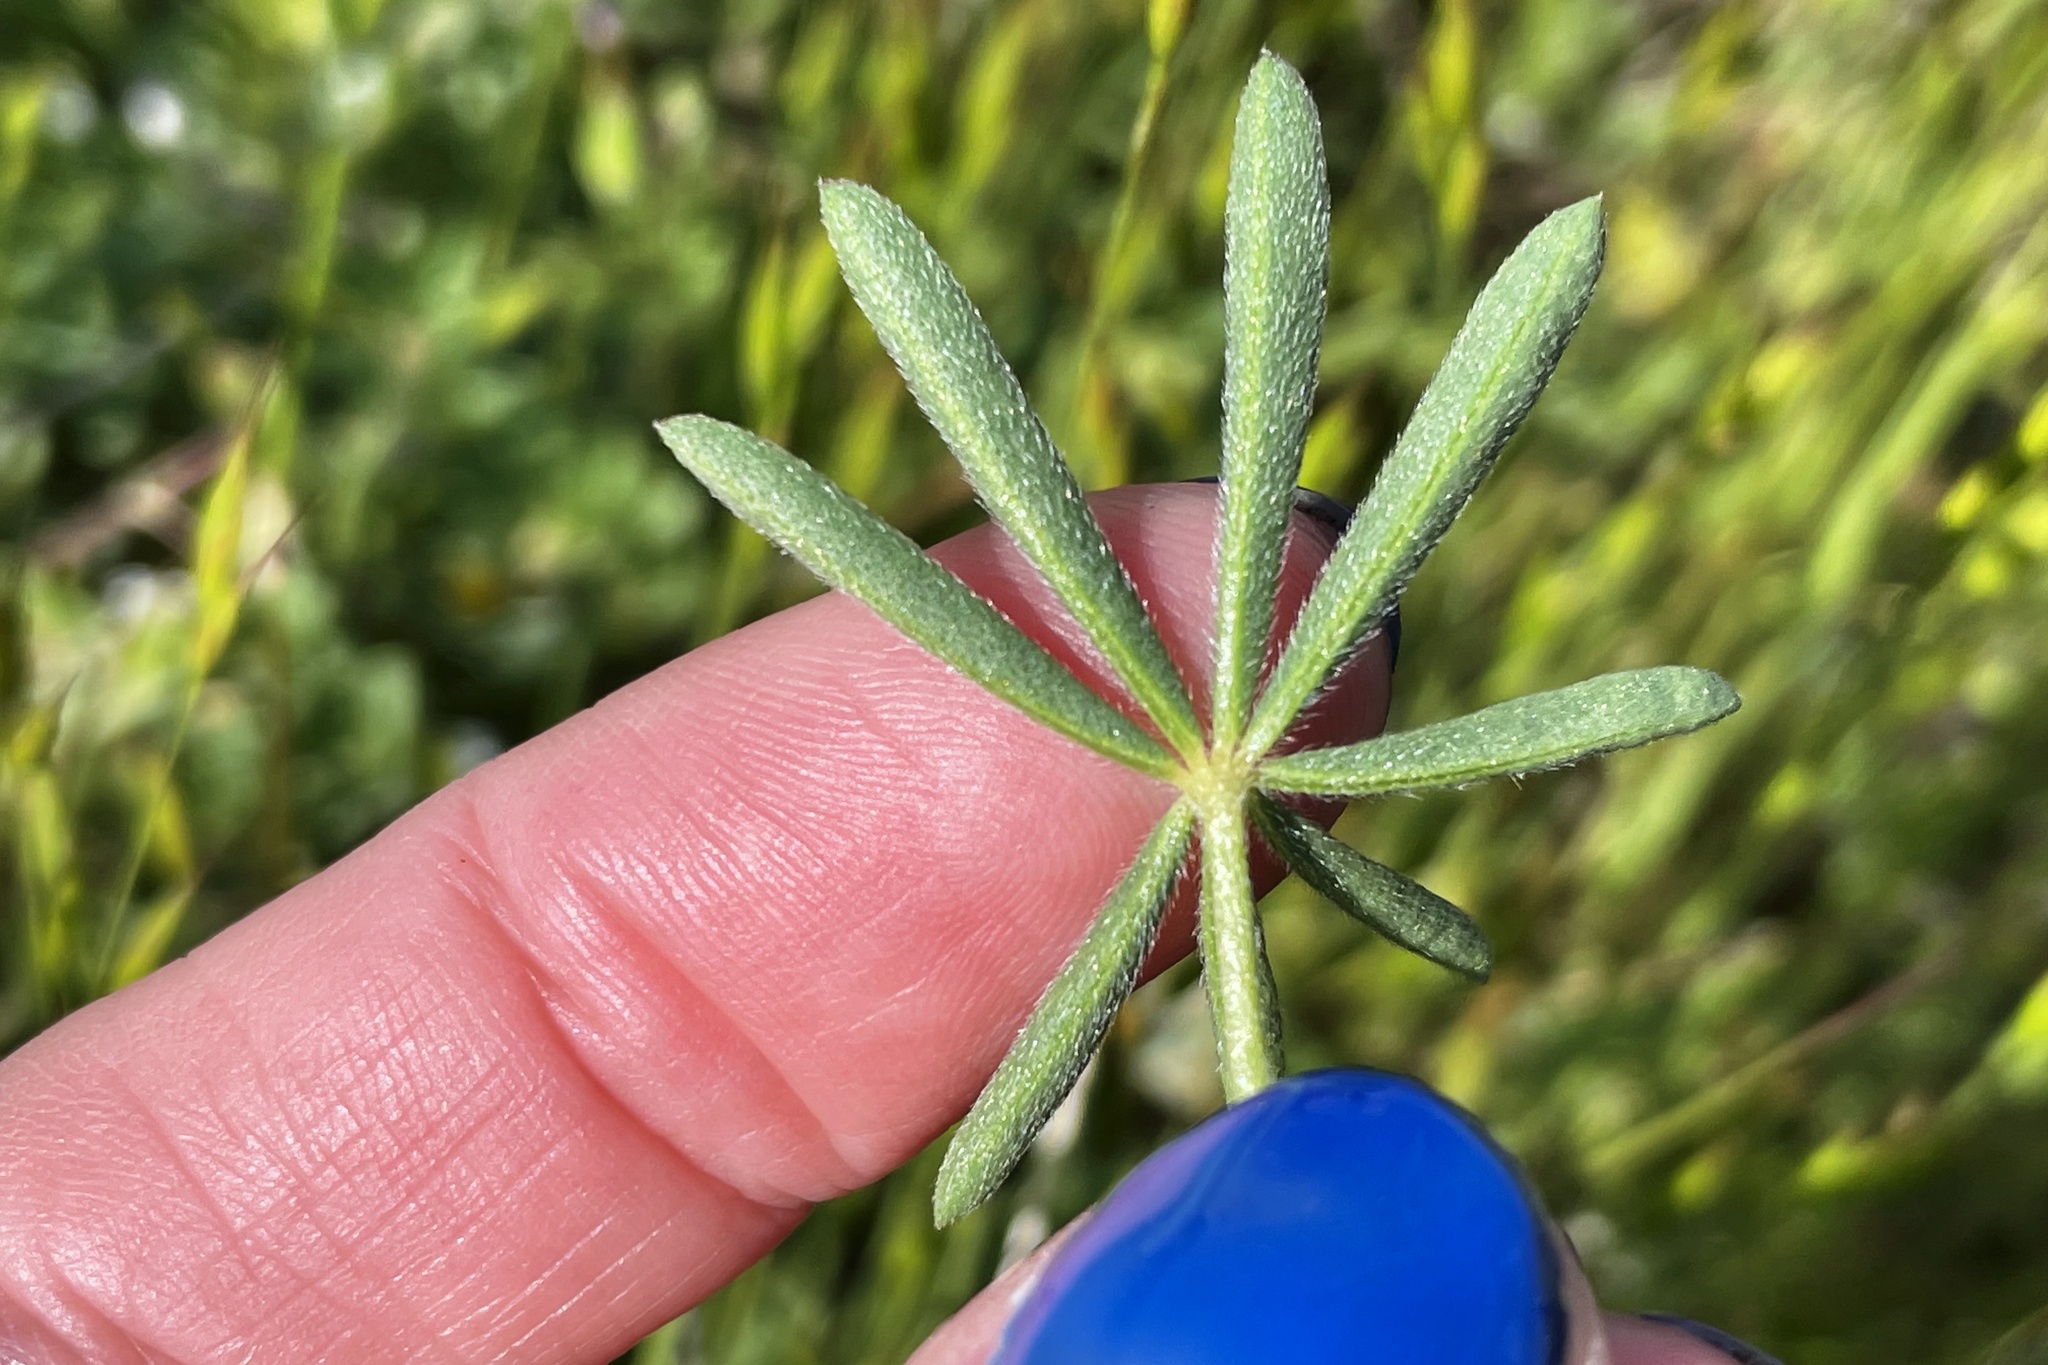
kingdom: Plantae
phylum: Tracheophyta
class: Magnoliopsida
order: Fabales
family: Fabaceae
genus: Lupinus
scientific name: Lupinus bicolor
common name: Miniature lupine
